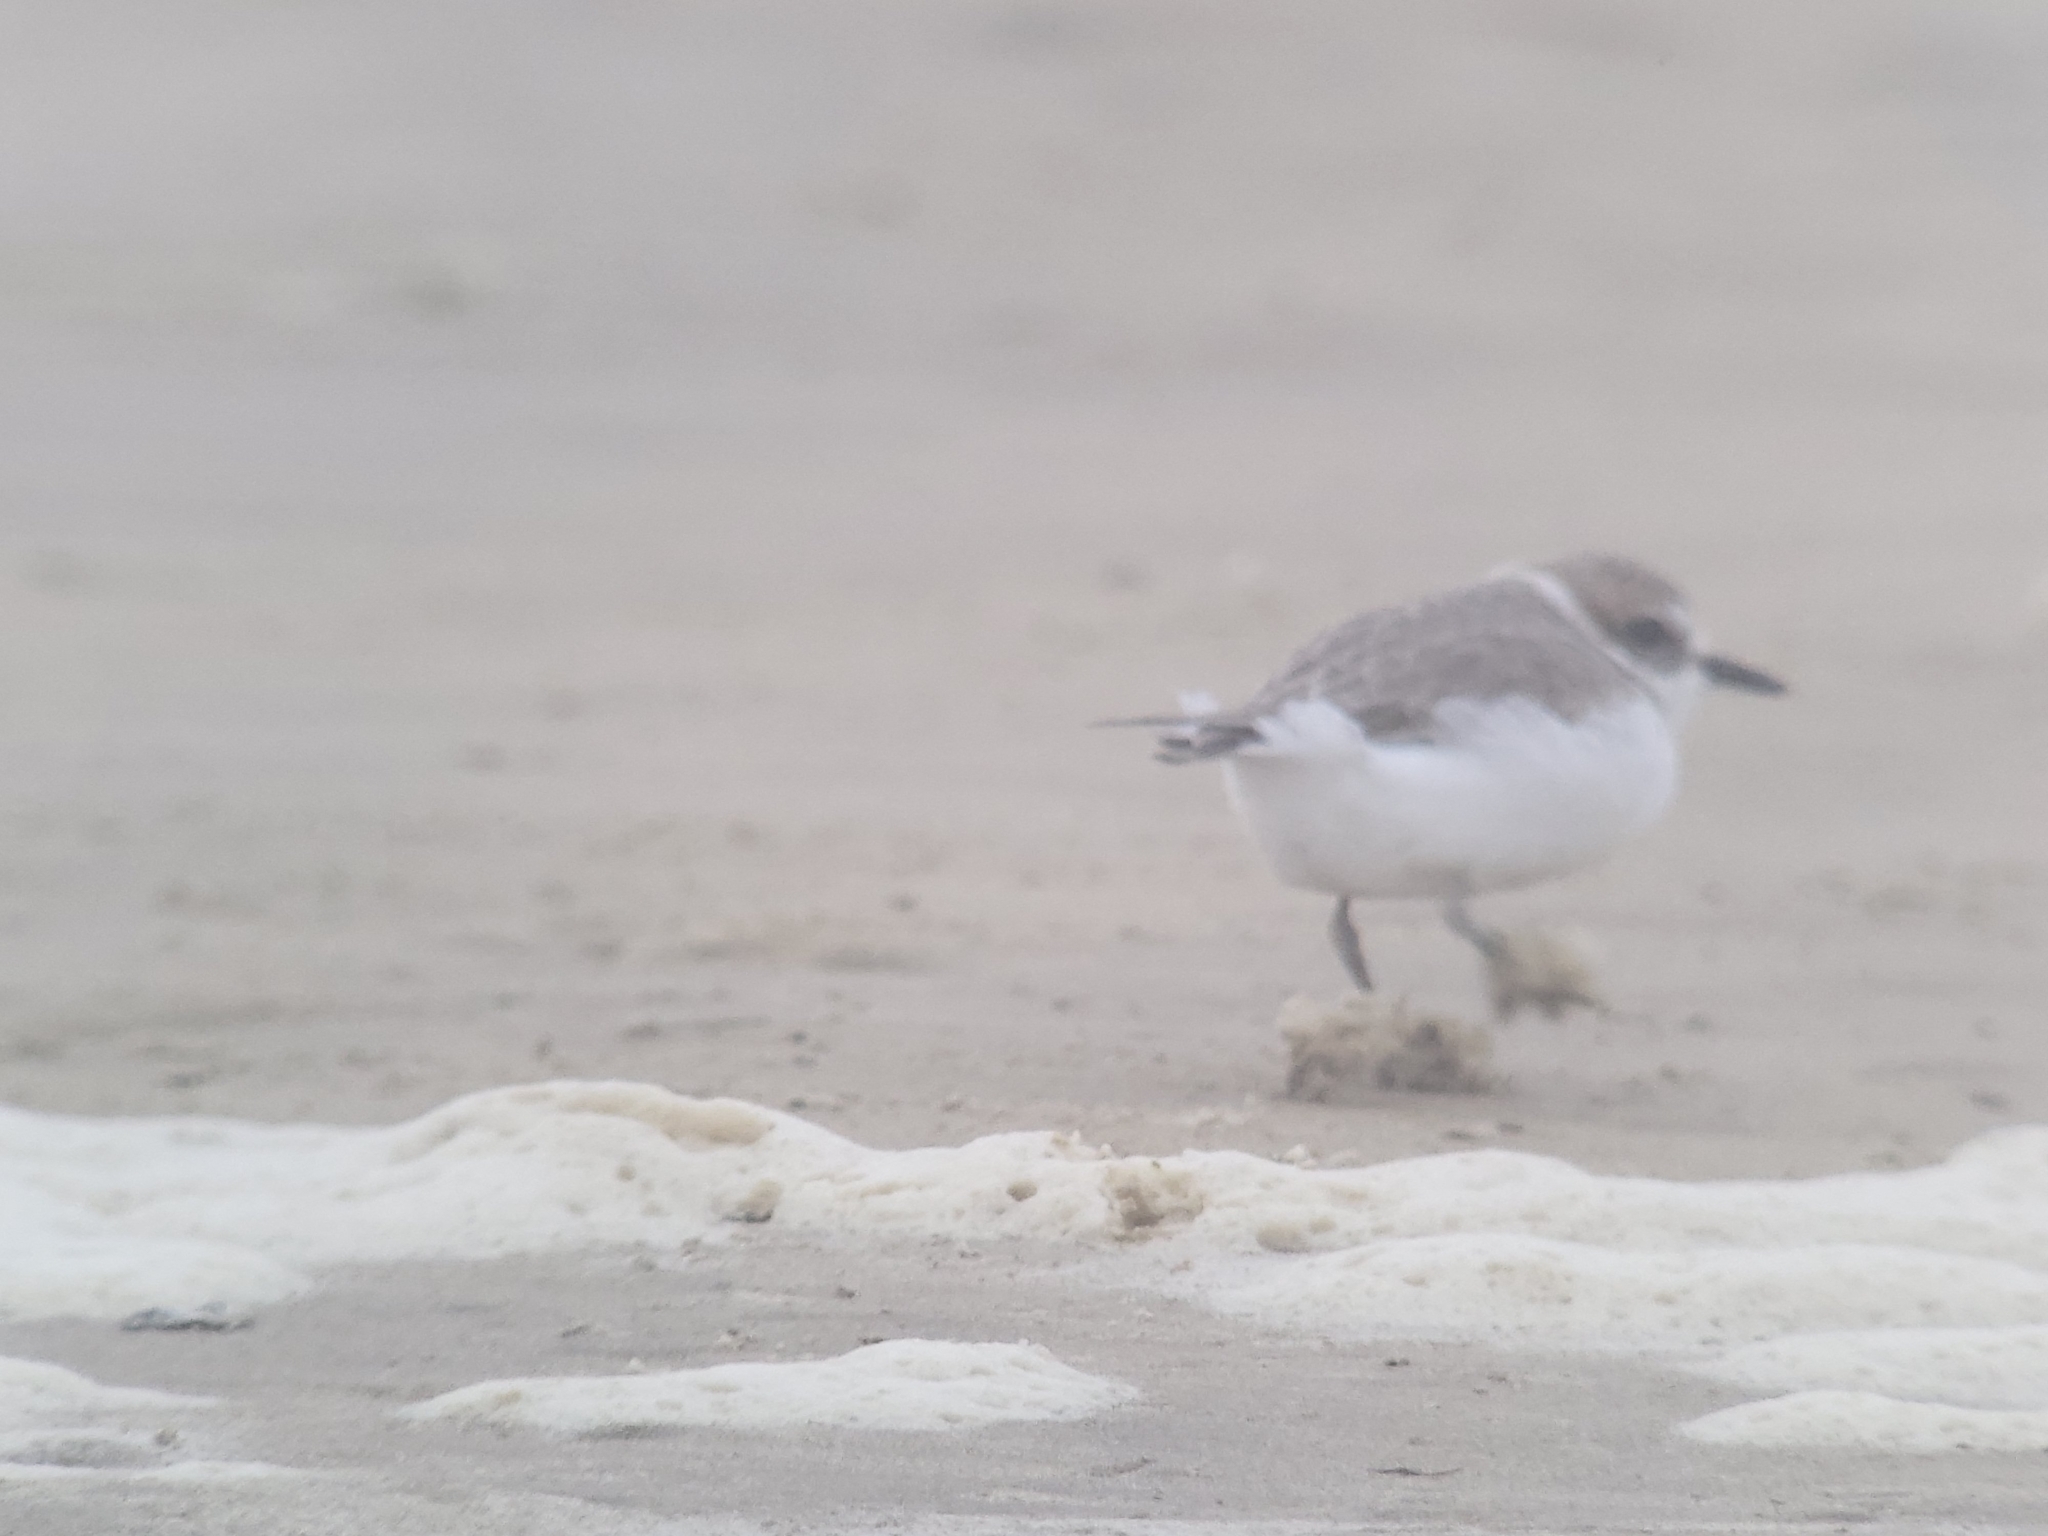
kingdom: Animalia
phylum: Chordata
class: Aves
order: Charadriiformes
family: Charadriidae
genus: Anarhynchus
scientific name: Anarhynchus
